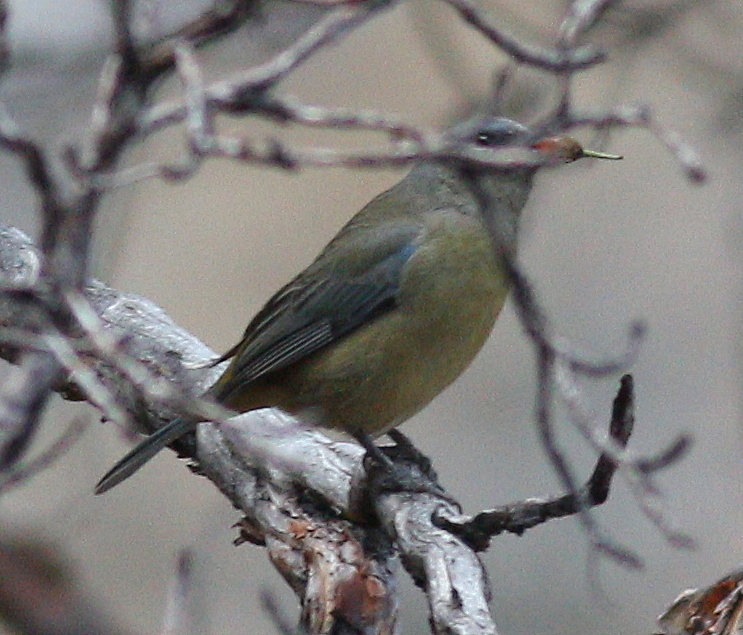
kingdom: Animalia
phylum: Chordata
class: Aves
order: Passeriformes
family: Thraupidae
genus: Rauenia
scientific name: Rauenia bonariensis
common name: Blue-and-yellow tanager
